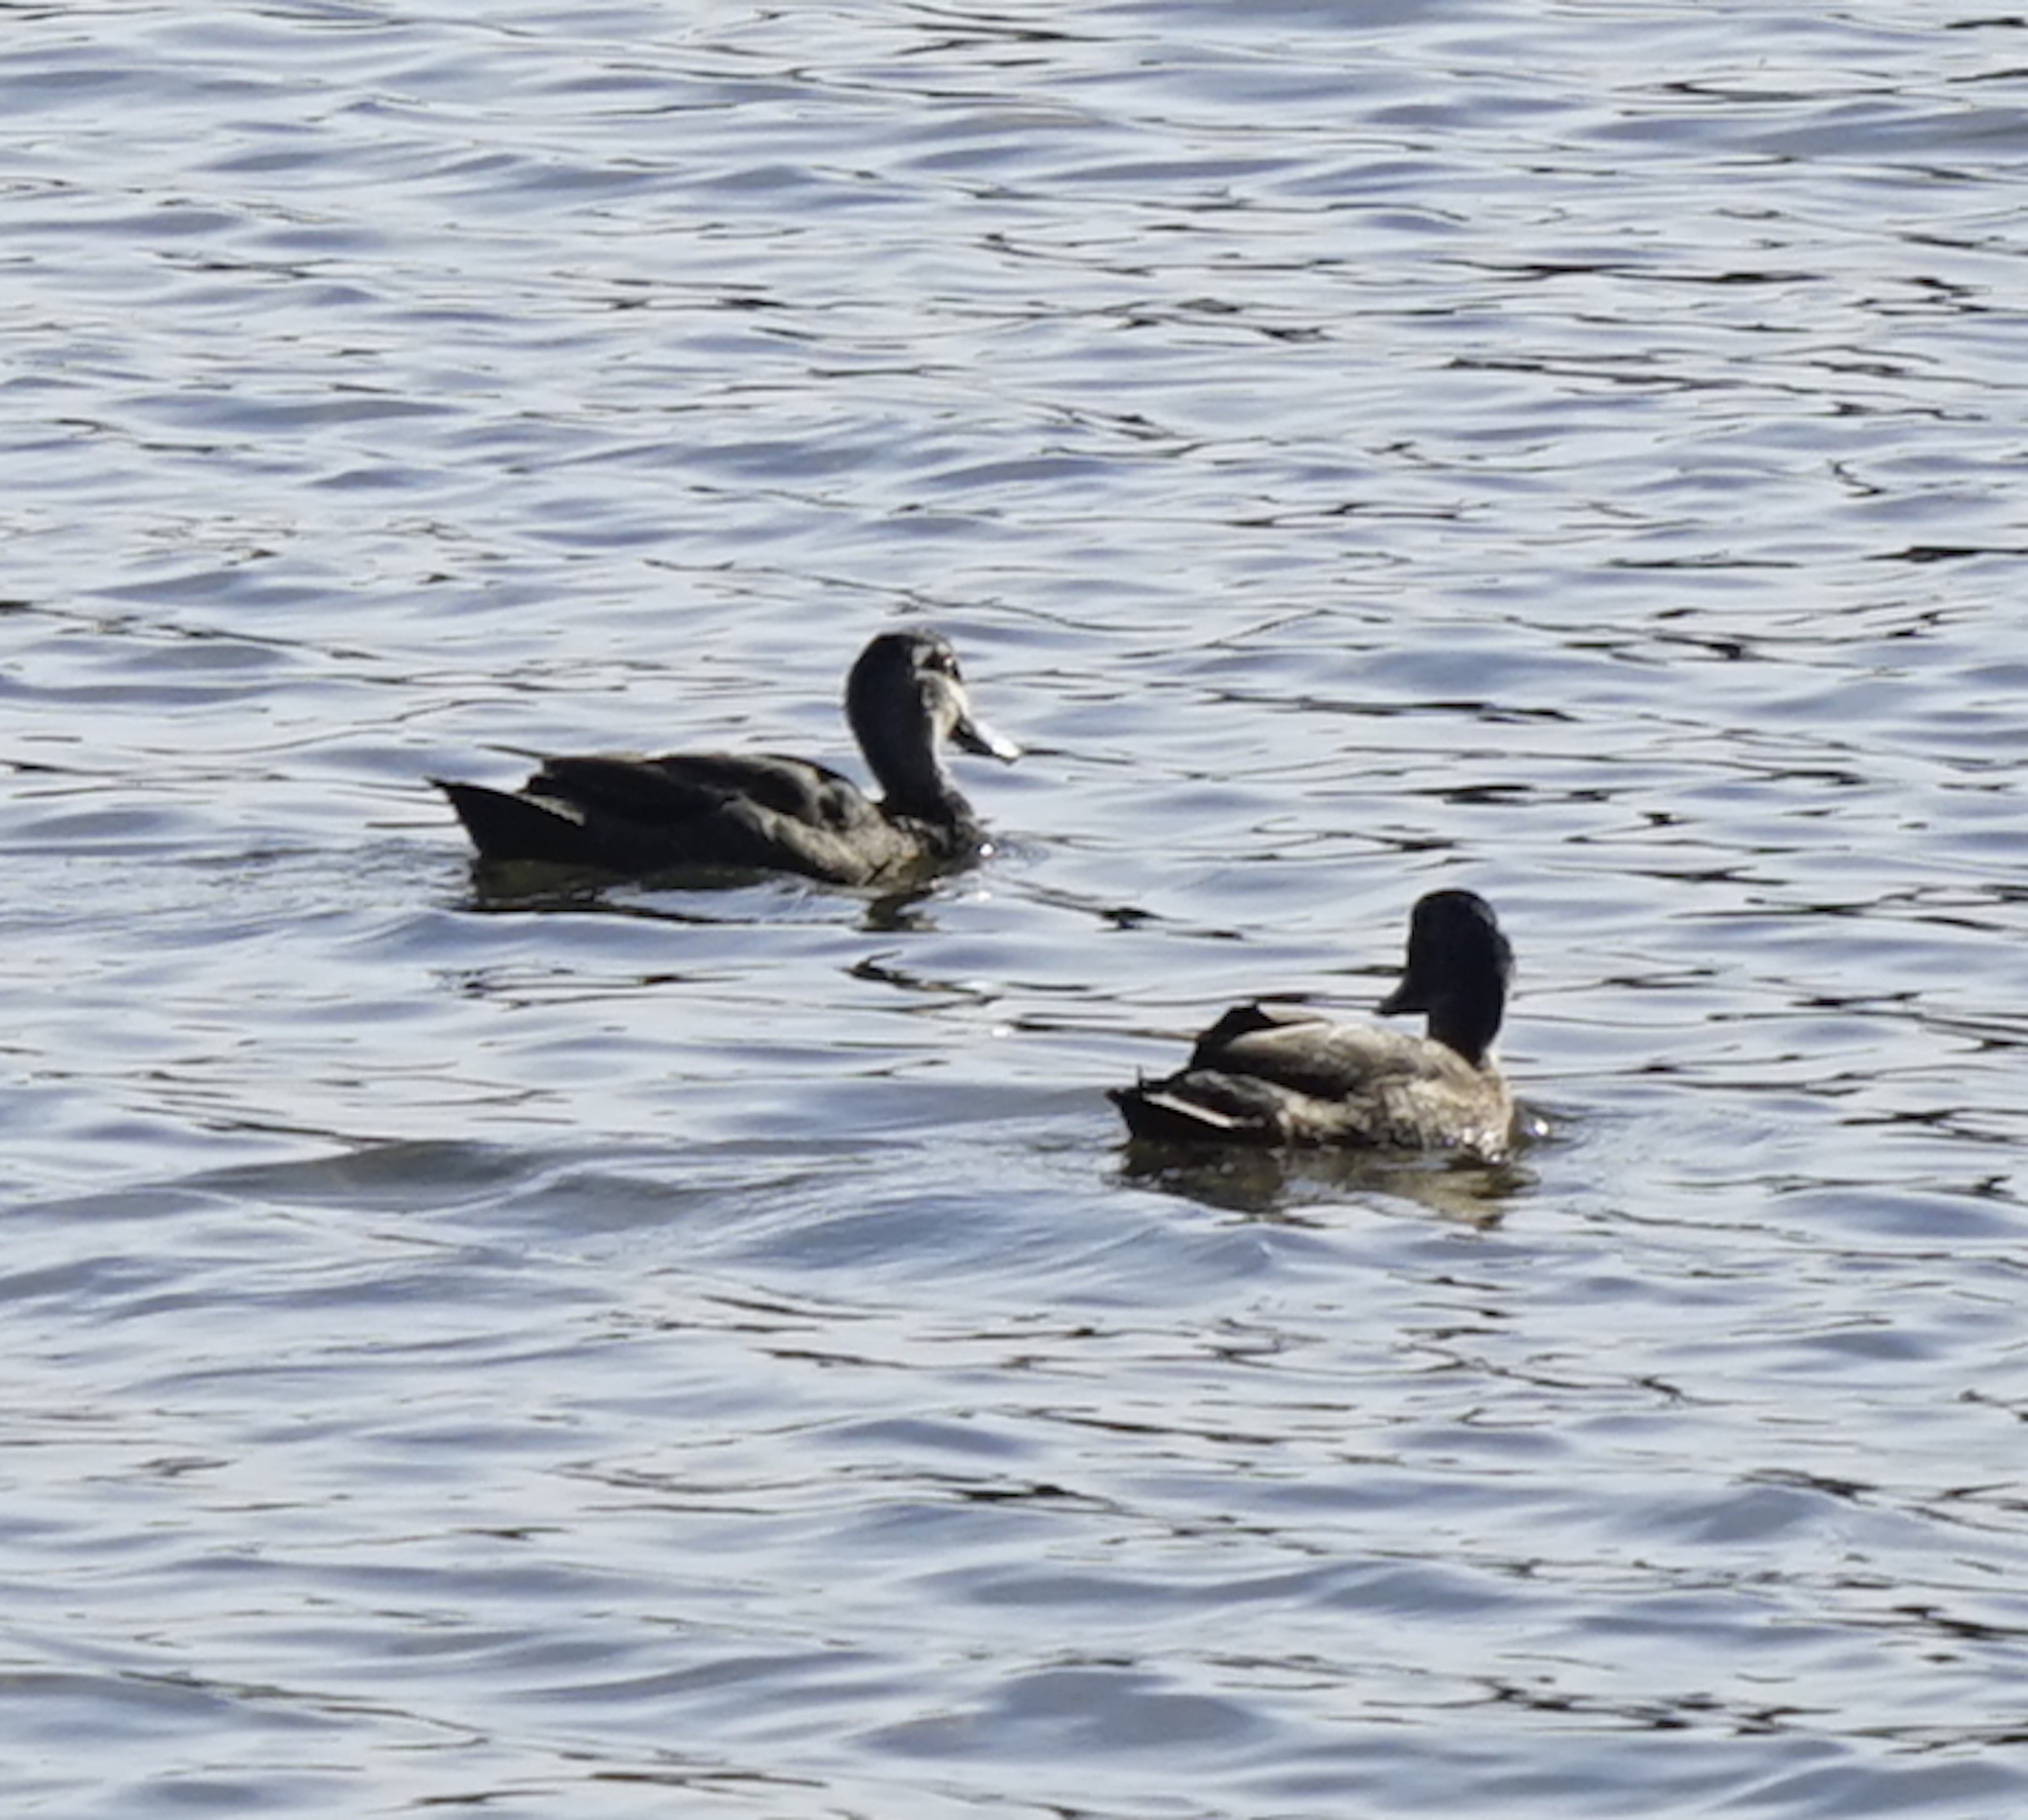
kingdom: Animalia
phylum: Chordata
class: Aves
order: Anseriformes
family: Anatidae
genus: Anas
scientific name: Anas superciliosa
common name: Pacific black duck
